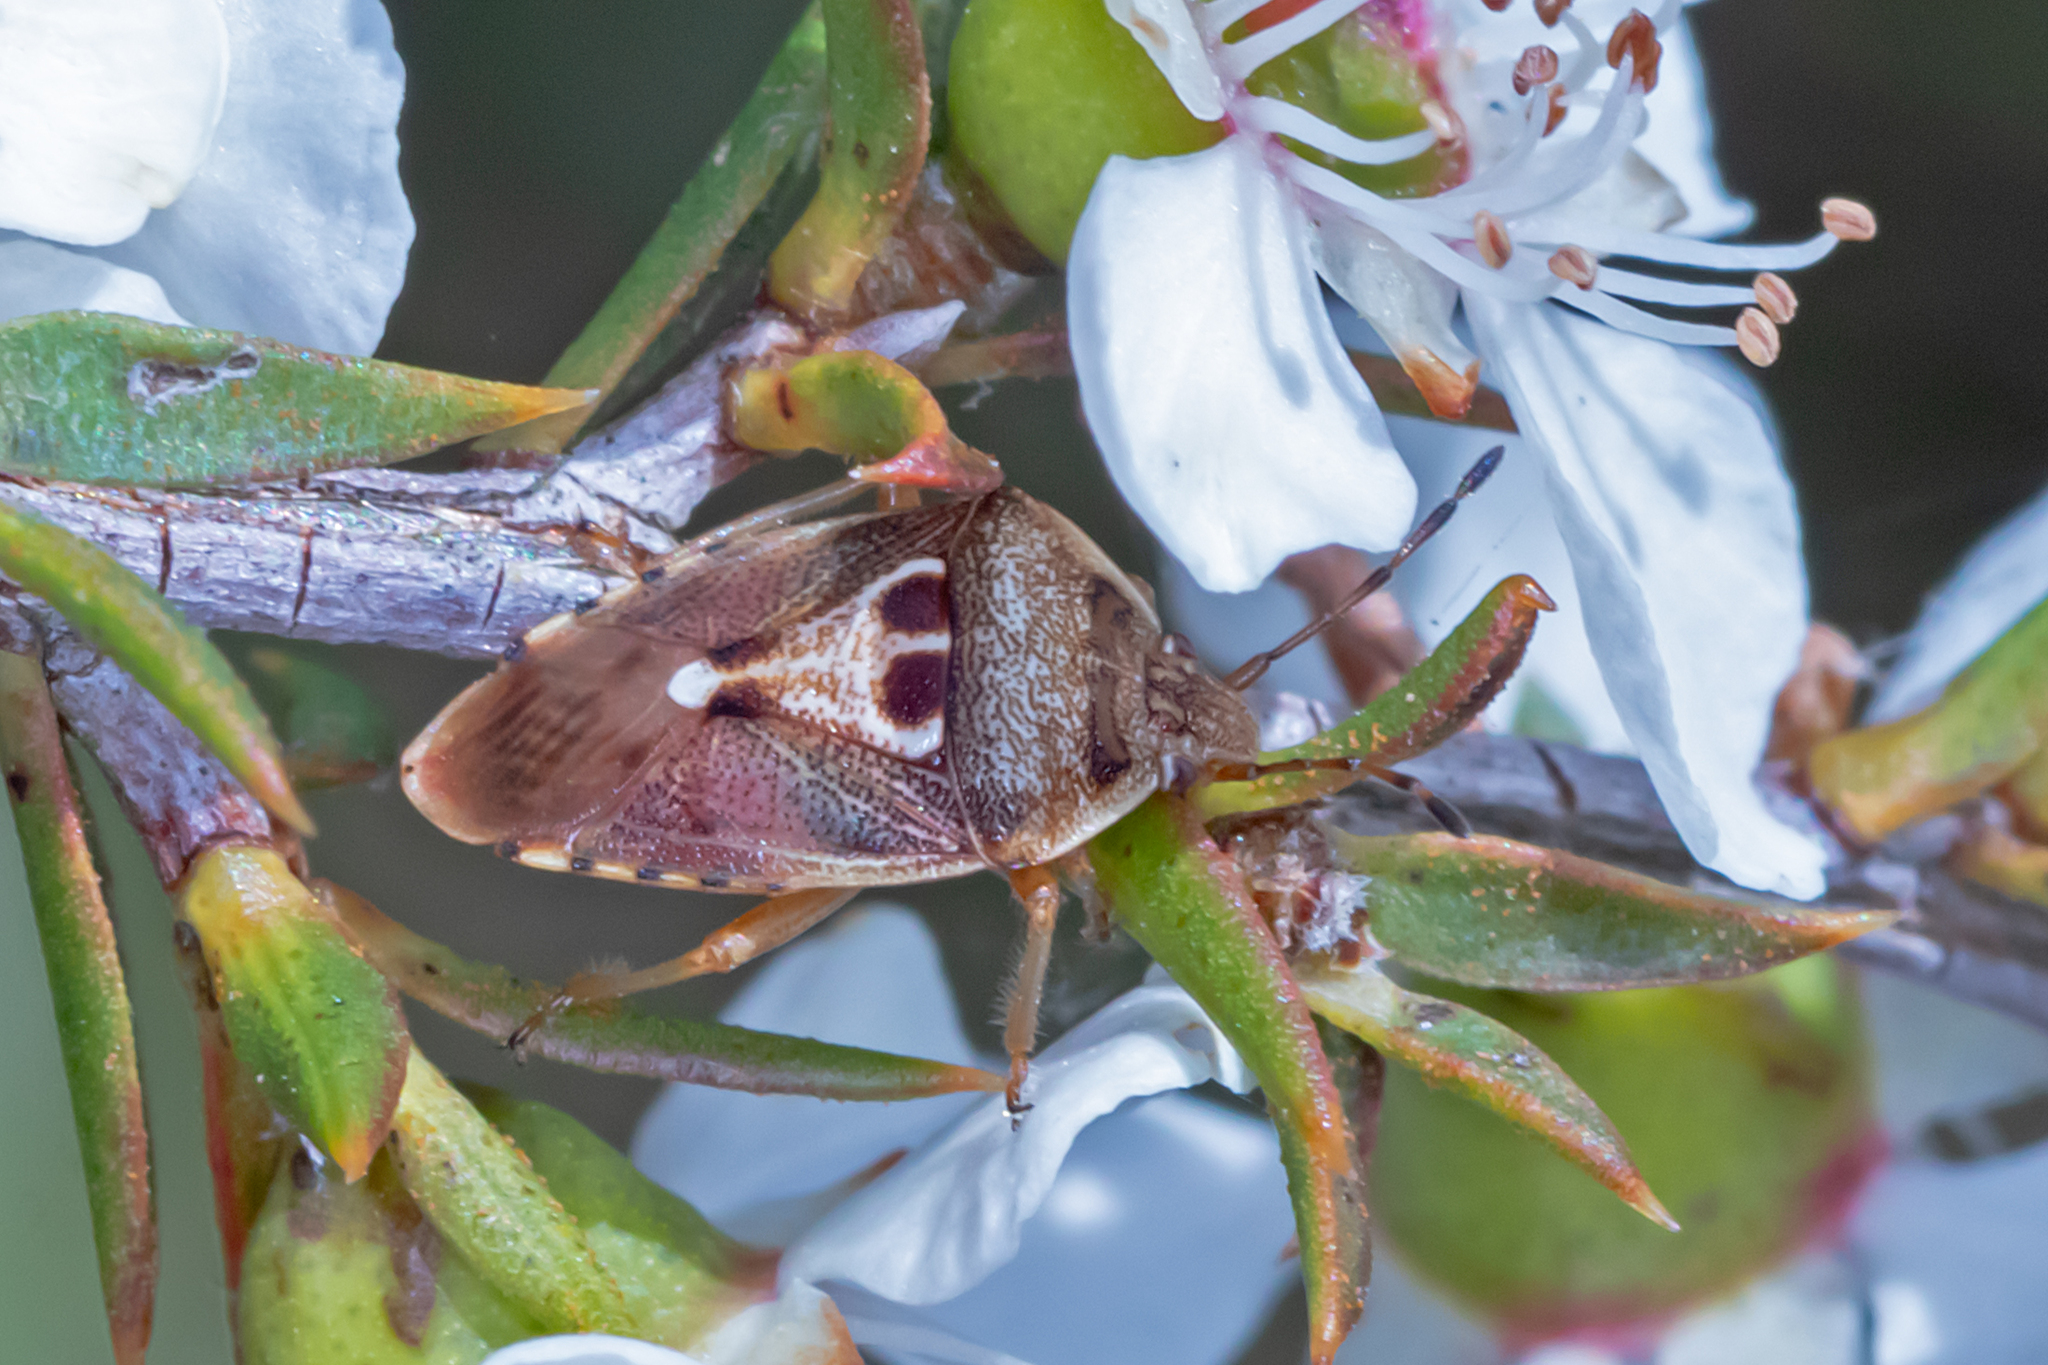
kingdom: Animalia
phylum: Arthropoda
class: Insecta
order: Hemiptera
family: Acanthosomatidae
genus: Eupolemus
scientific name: Eupolemus angularis
